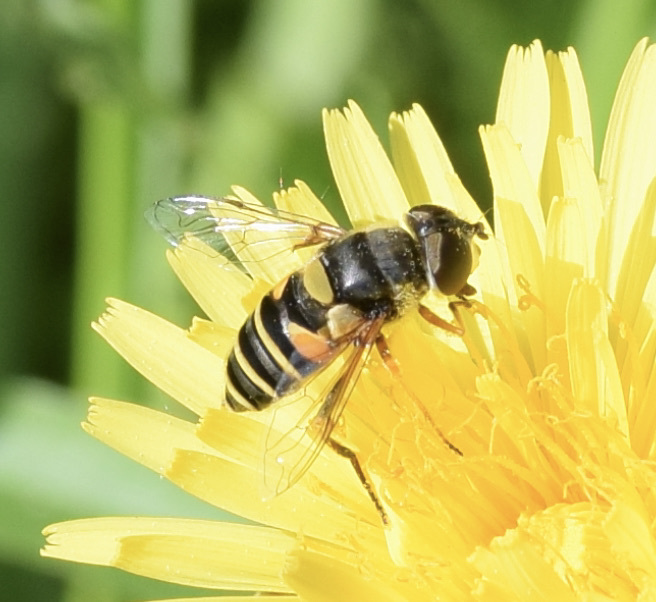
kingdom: Animalia
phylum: Arthropoda
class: Insecta
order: Diptera
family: Syrphidae
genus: Eristalis
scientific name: Eristalis transversa
